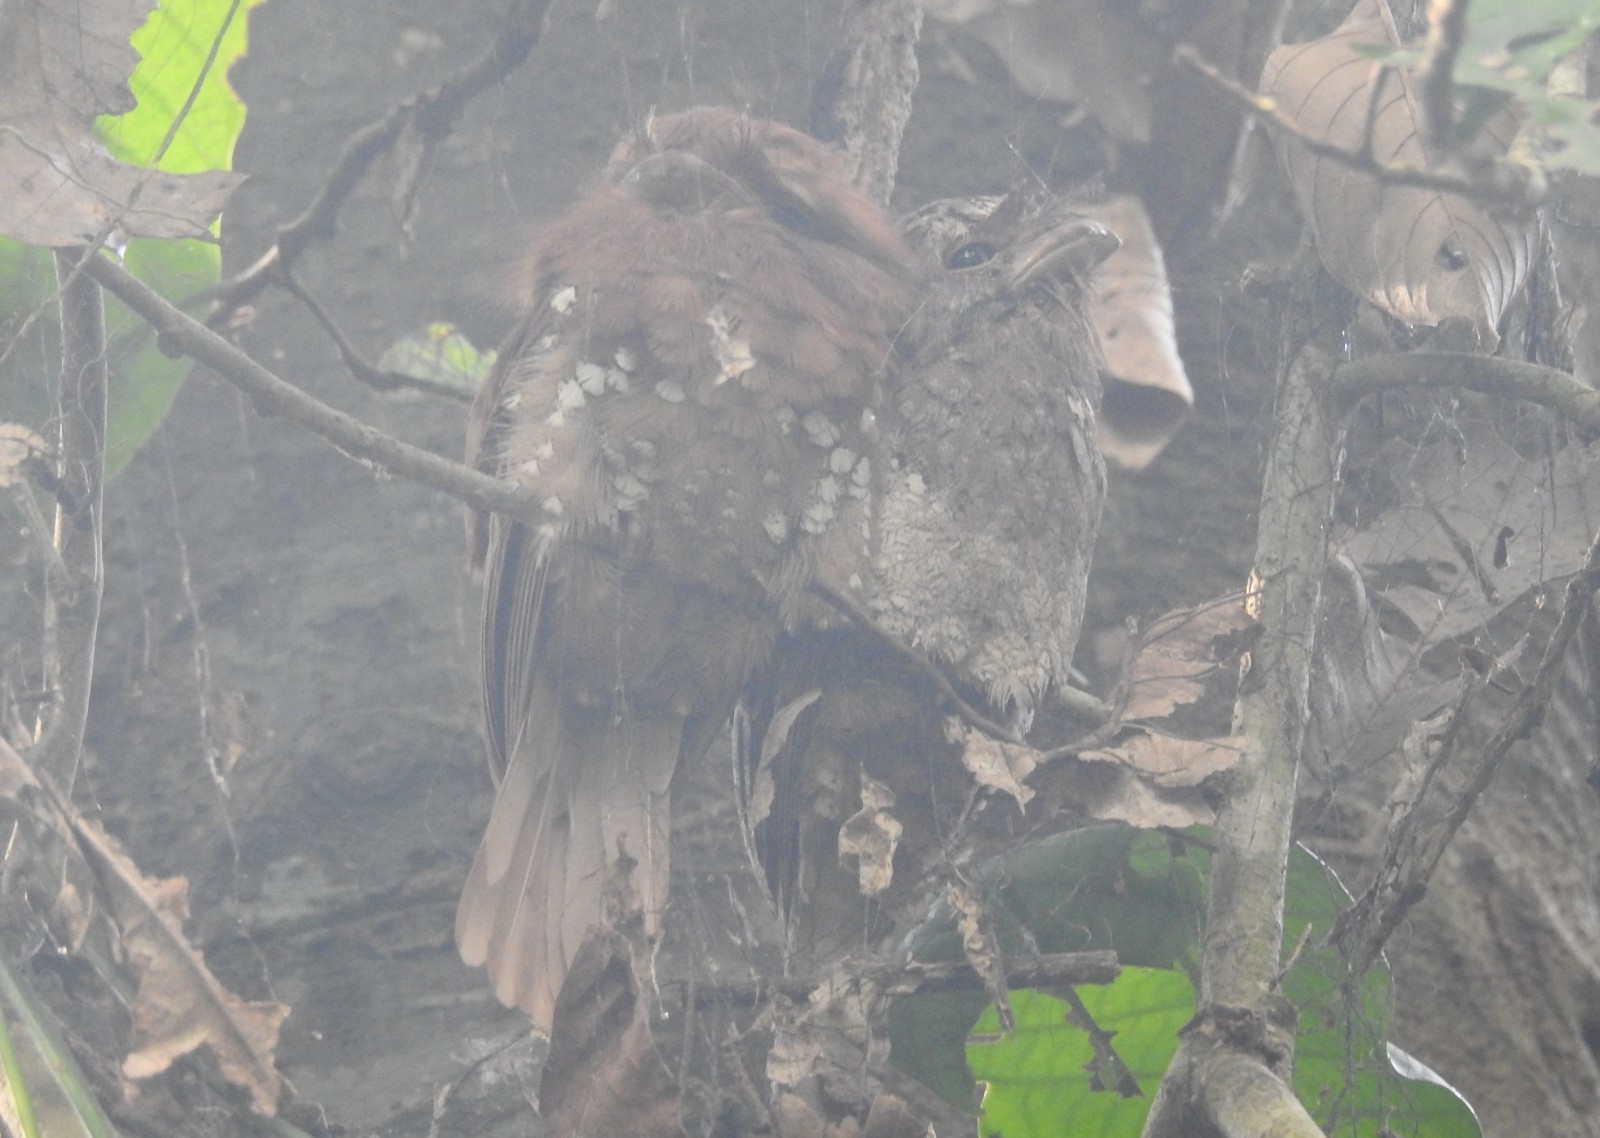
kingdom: Animalia
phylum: Chordata
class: Aves
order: Caprimulgiformes
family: Podargidae
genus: Batrachostomus
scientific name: Batrachostomus moniliger
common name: Sri lanka frogmouth
